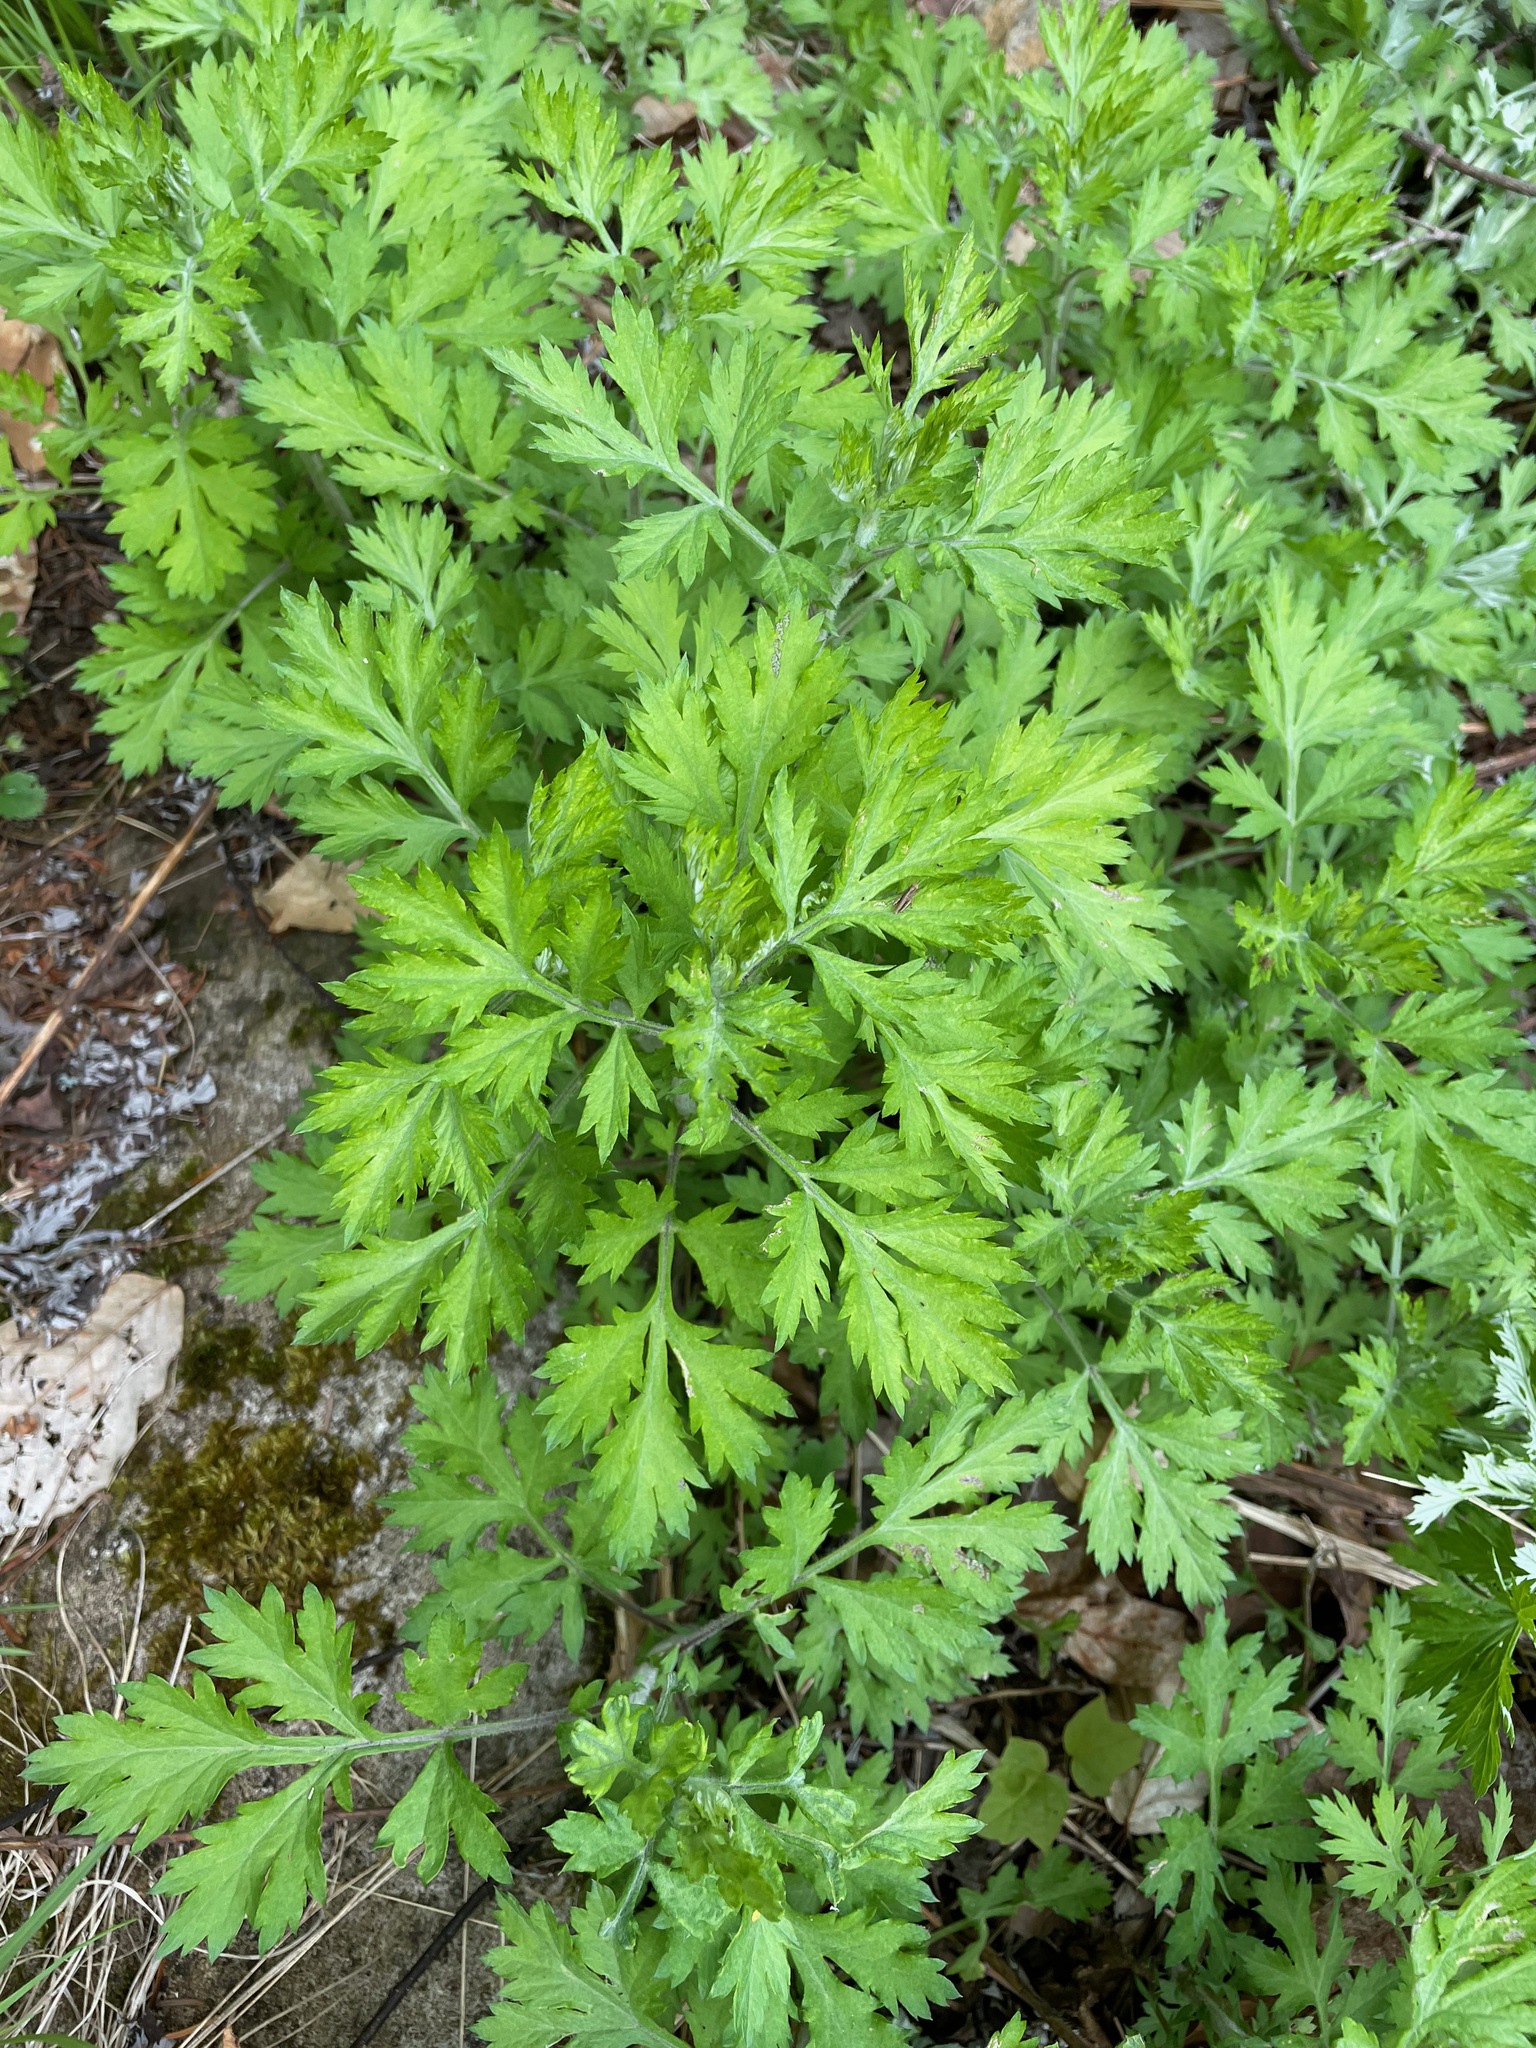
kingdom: Plantae
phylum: Tracheophyta
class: Magnoliopsida
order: Asterales
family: Asteraceae
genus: Artemisia
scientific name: Artemisia vulgaris
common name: Mugwort
